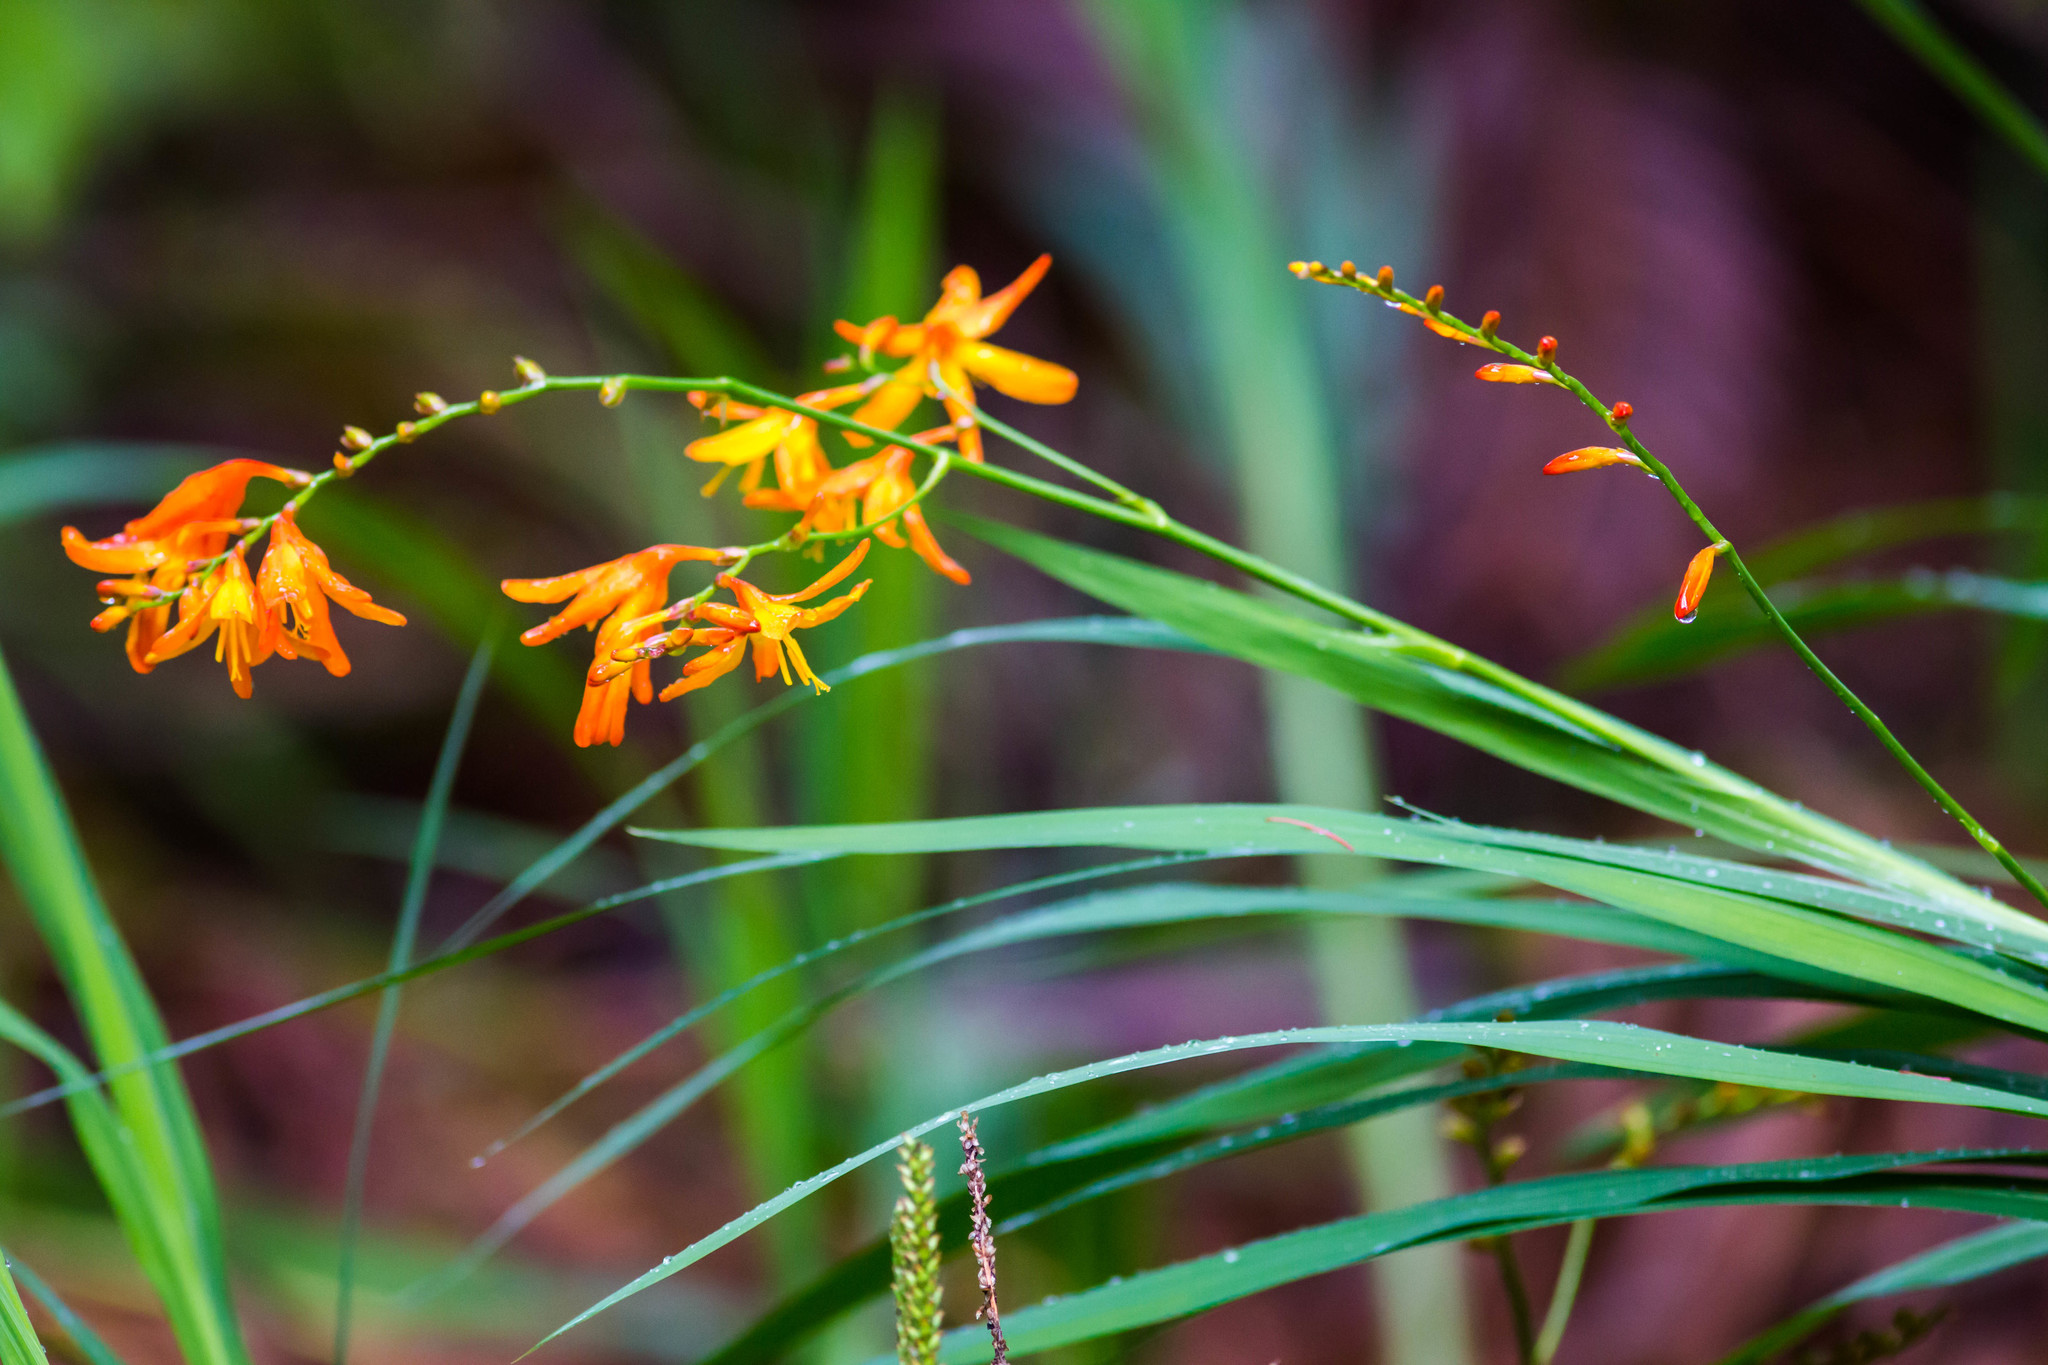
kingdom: Plantae
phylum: Tracheophyta
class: Liliopsida
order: Asparagales
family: Iridaceae
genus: Crocosmia
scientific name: Crocosmia crocosmiiflora
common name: Montbretia
